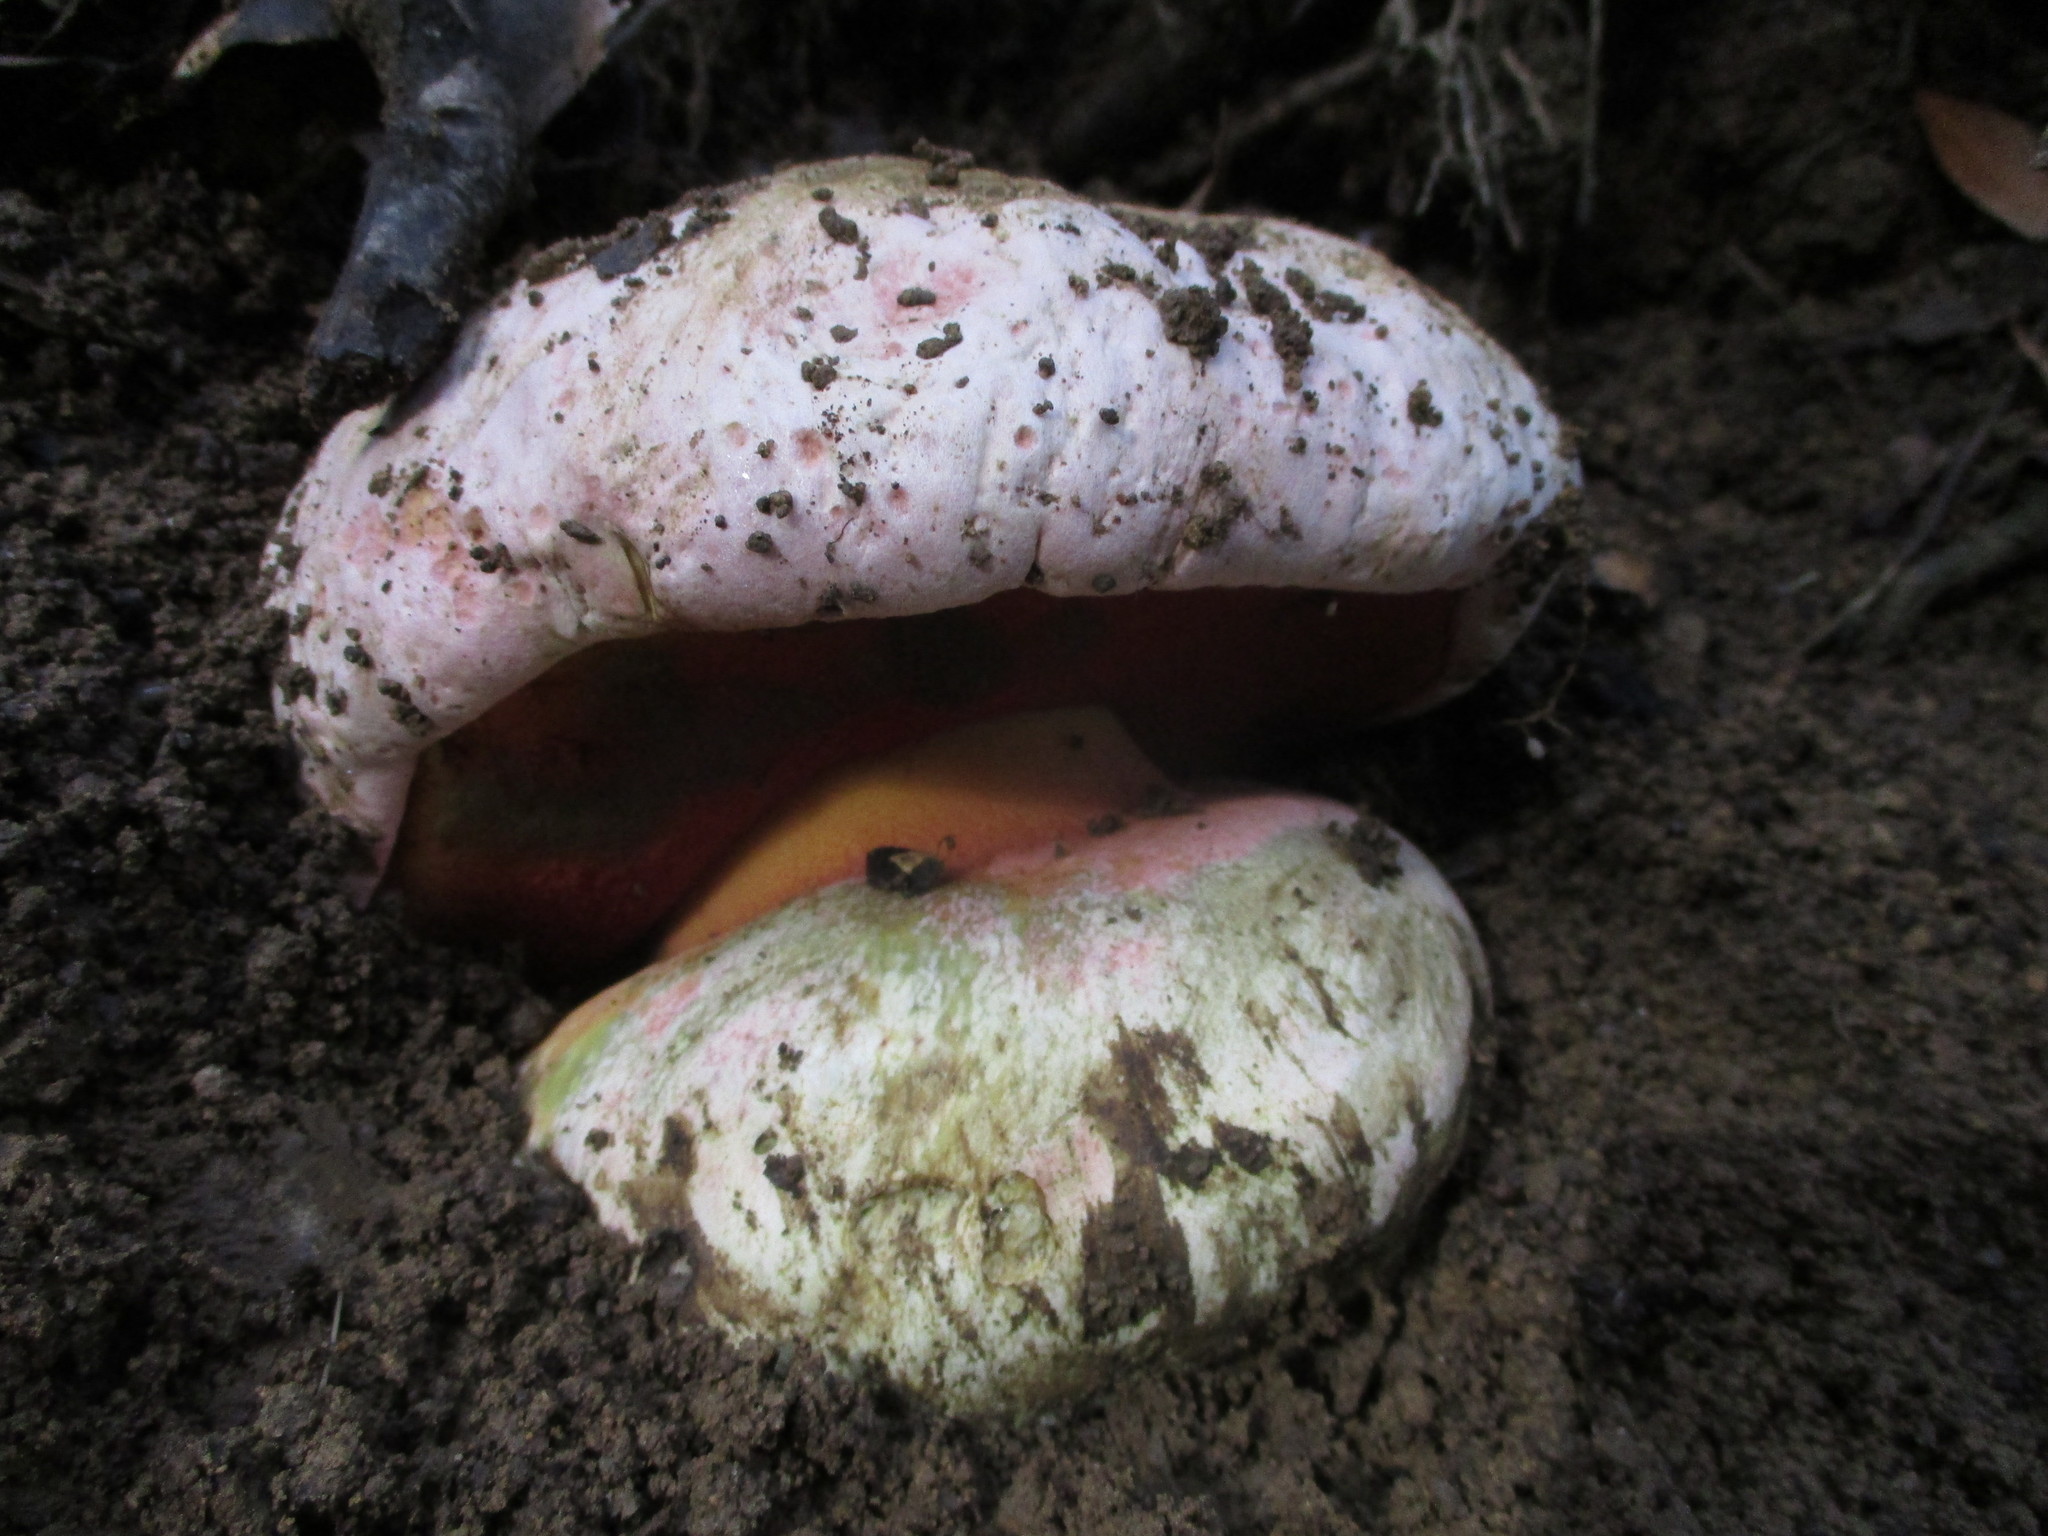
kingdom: Fungi
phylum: Basidiomycota
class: Agaricomycetes
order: Boletales
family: Boletaceae
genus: Rubroboletus
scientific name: Rubroboletus eastwoodiae
